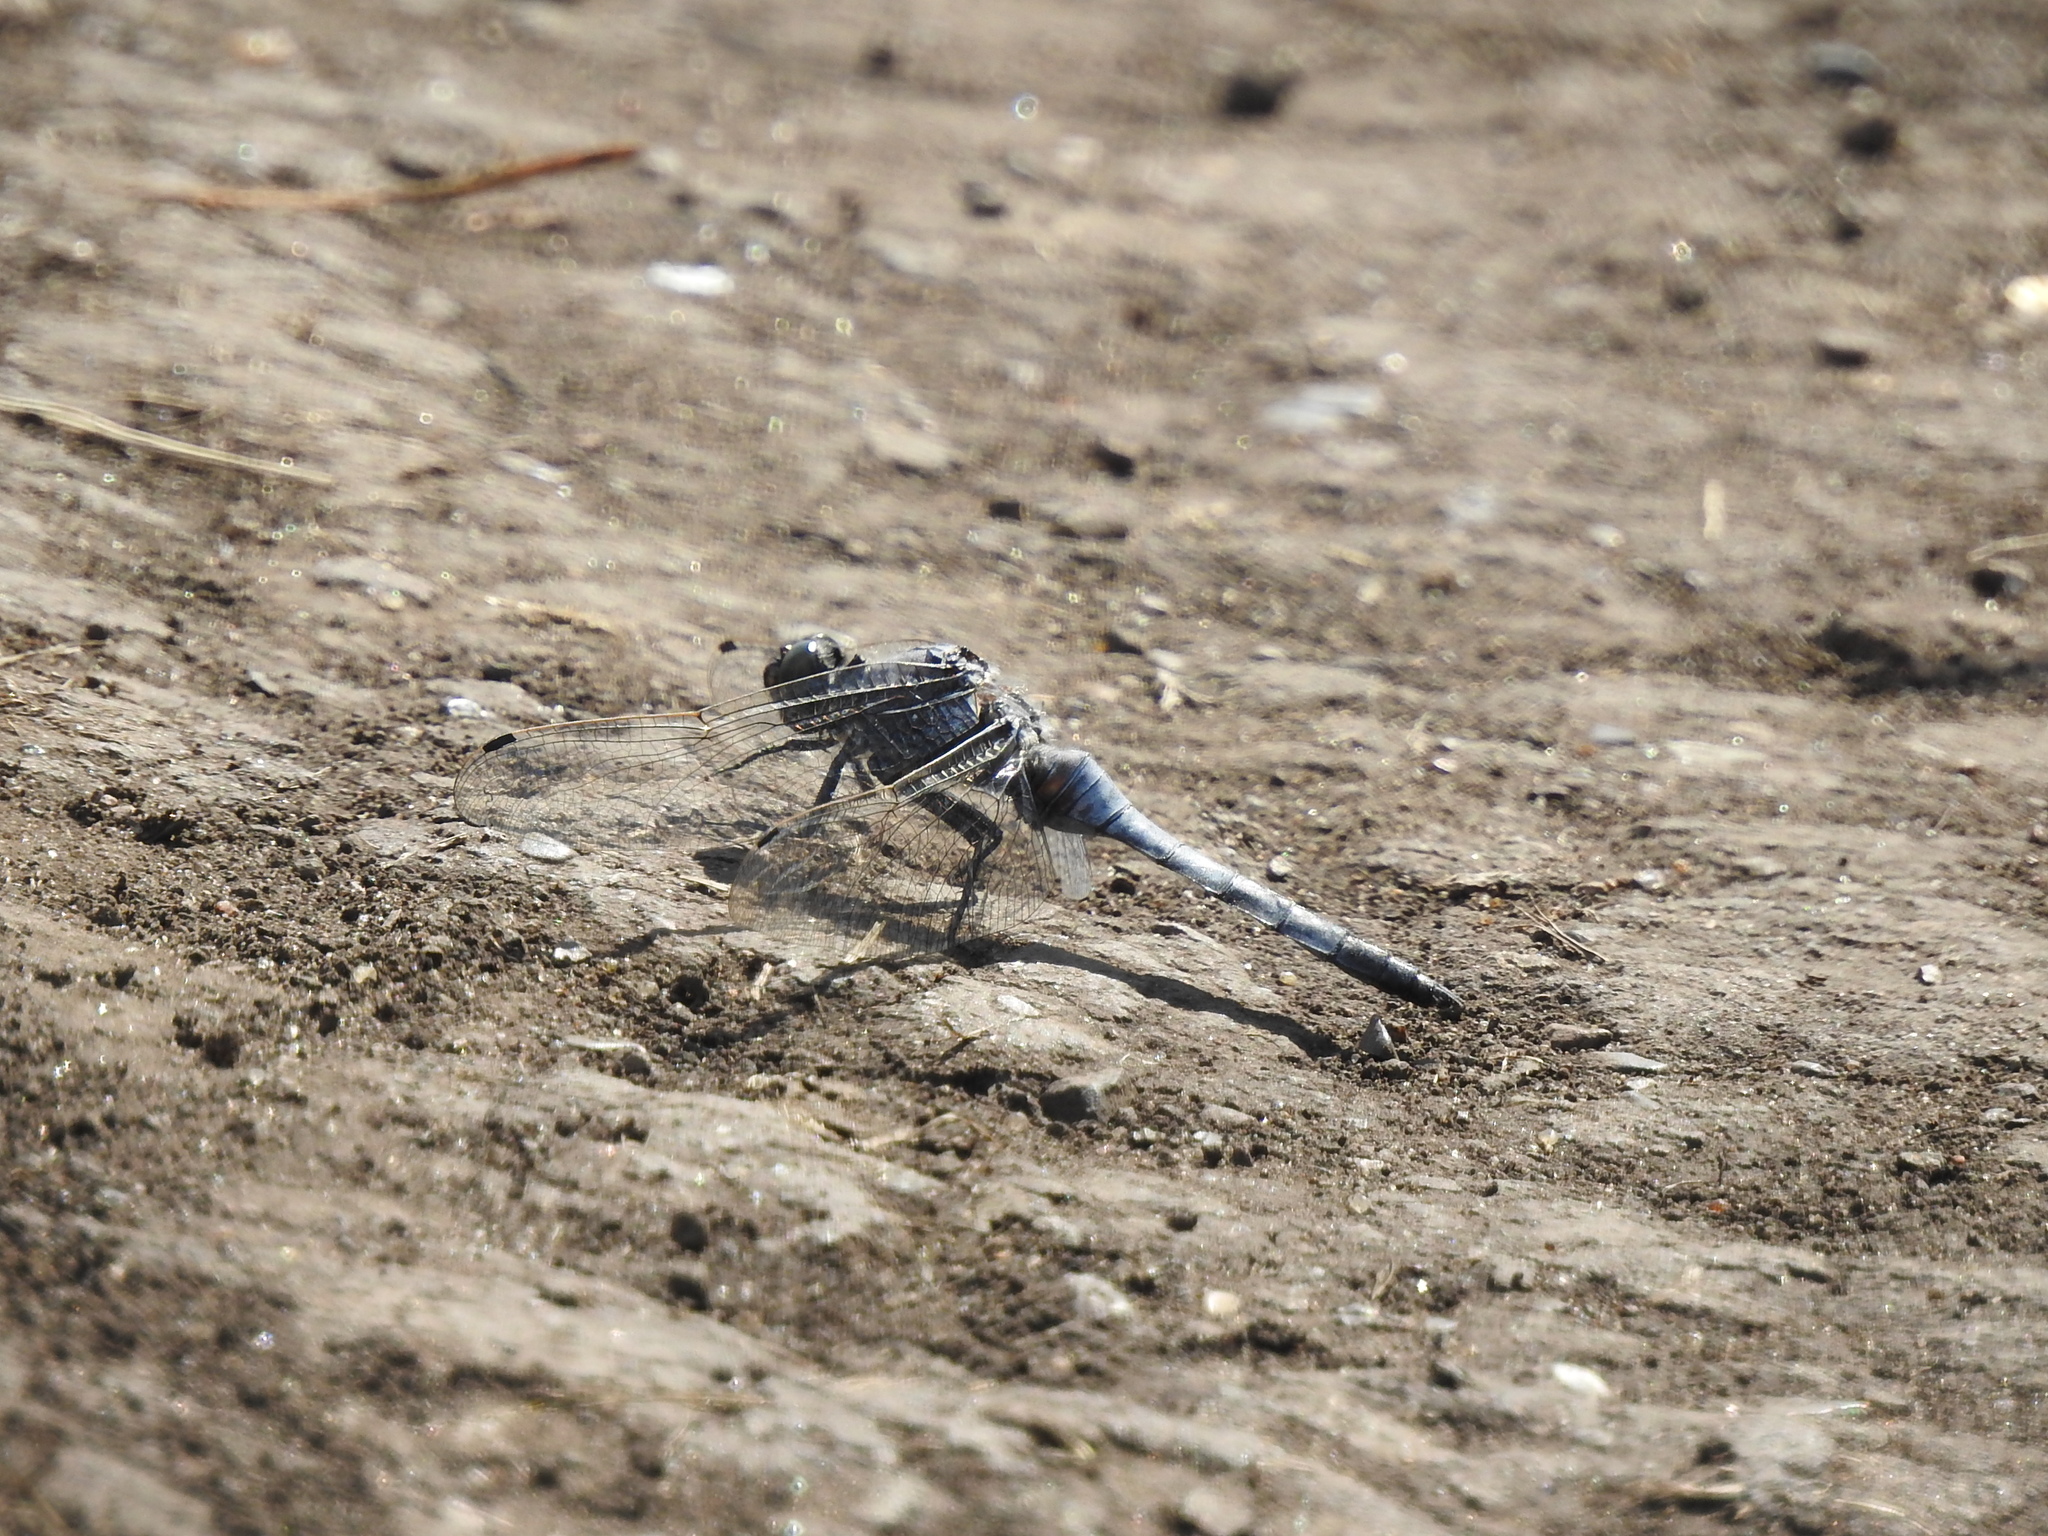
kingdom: Animalia
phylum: Arthropoda
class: Insecta
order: Odonata
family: Libellulidae
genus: Orthetrum
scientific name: Orthetrum cancellatum
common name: Black-tailed skimmer
